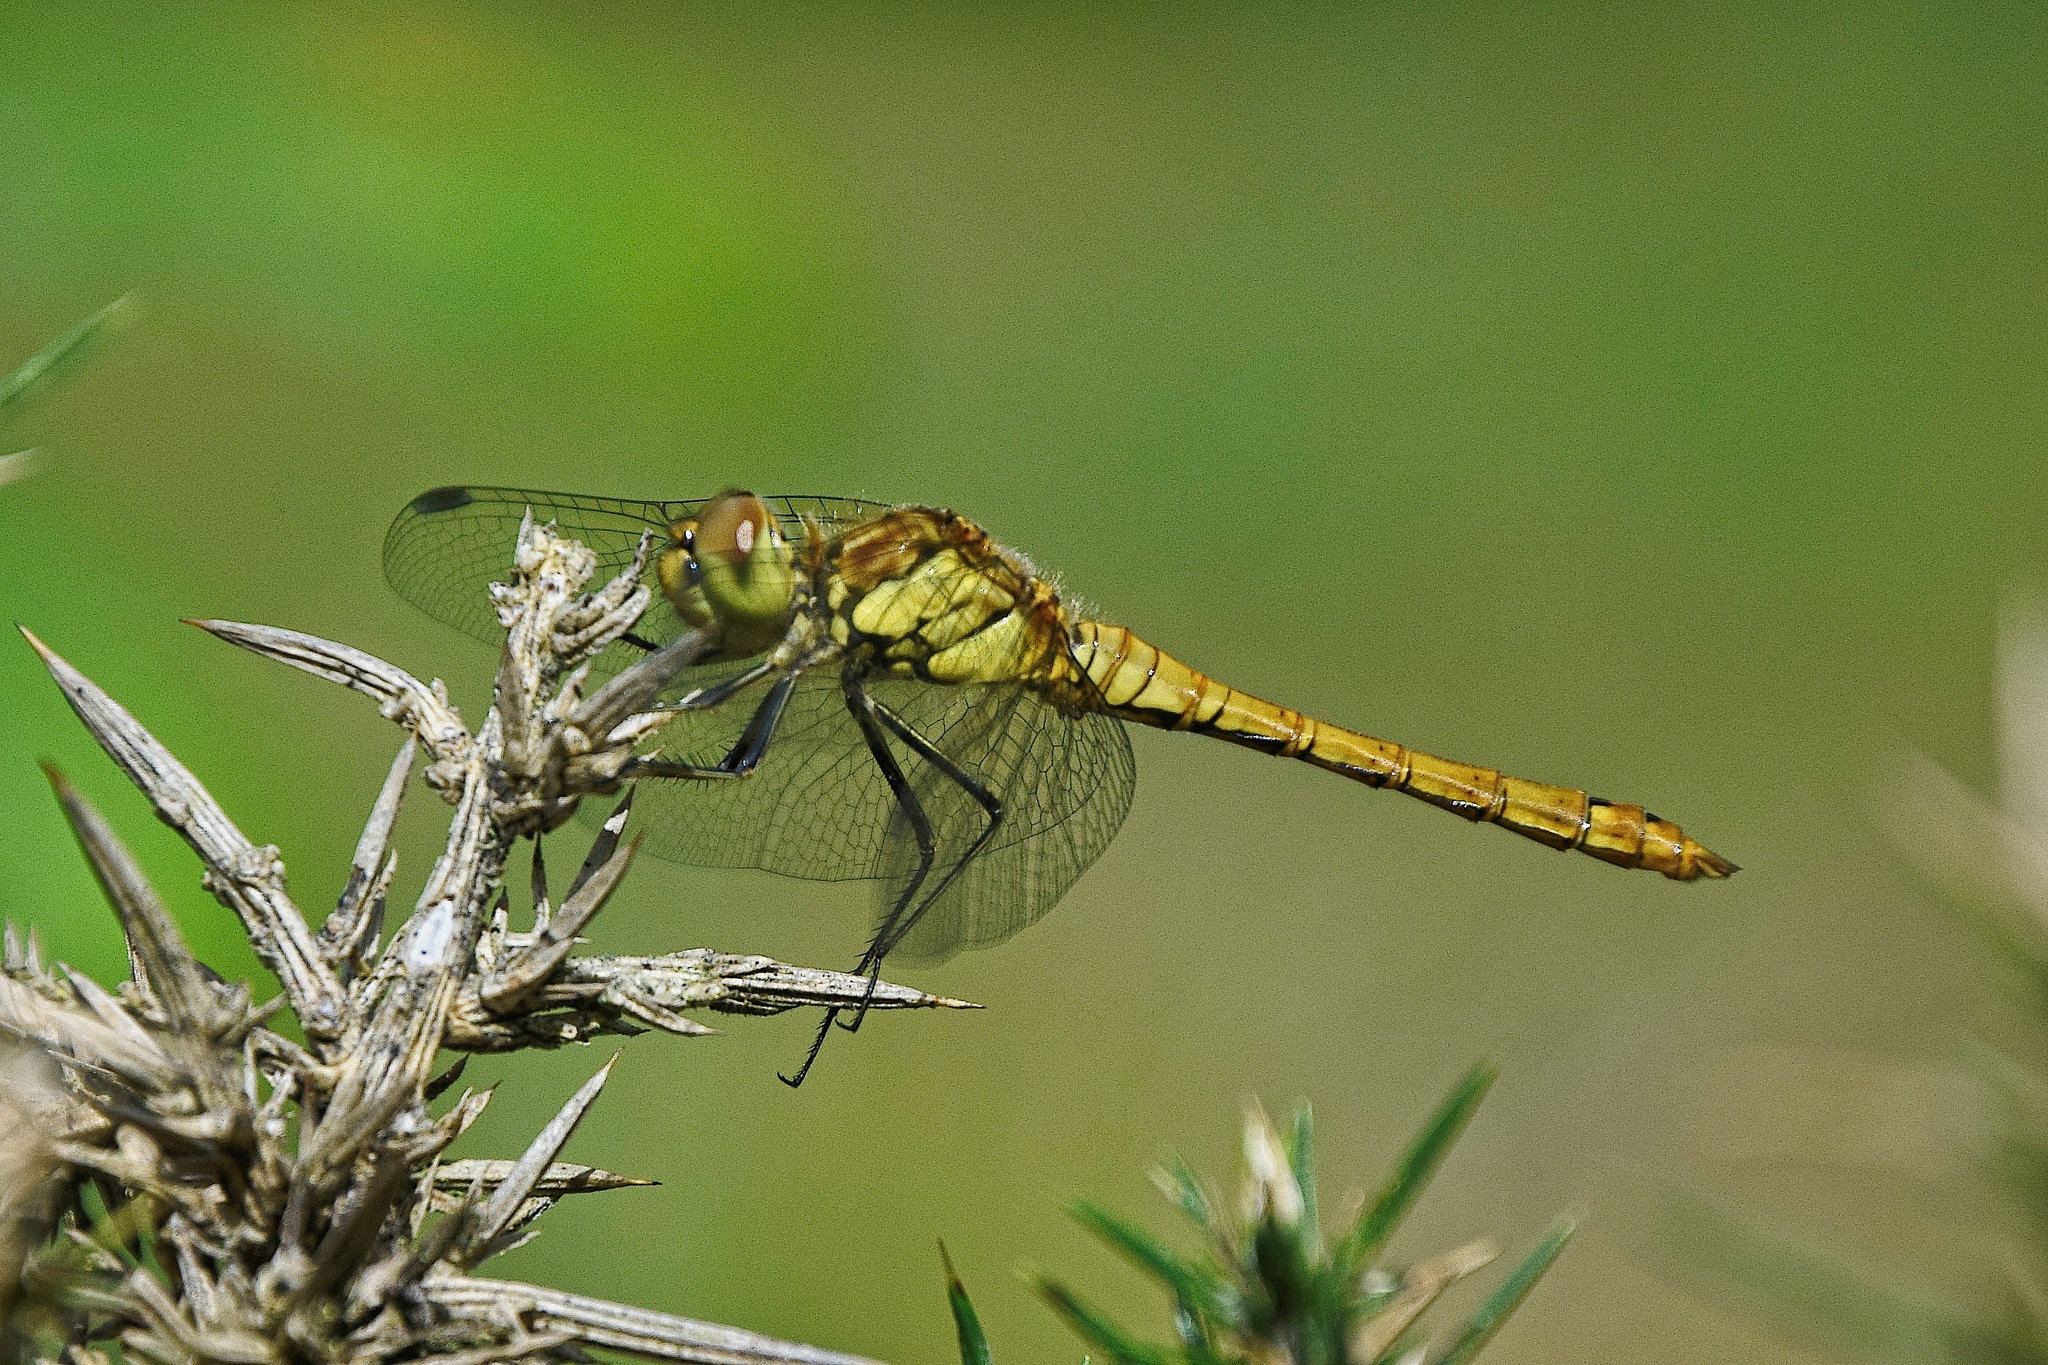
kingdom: Animalia
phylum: Arthropoda
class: Insecta
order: Odonata
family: Libellulidae
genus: Sympetrum
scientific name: Sympetrum striolatum
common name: Common darter
